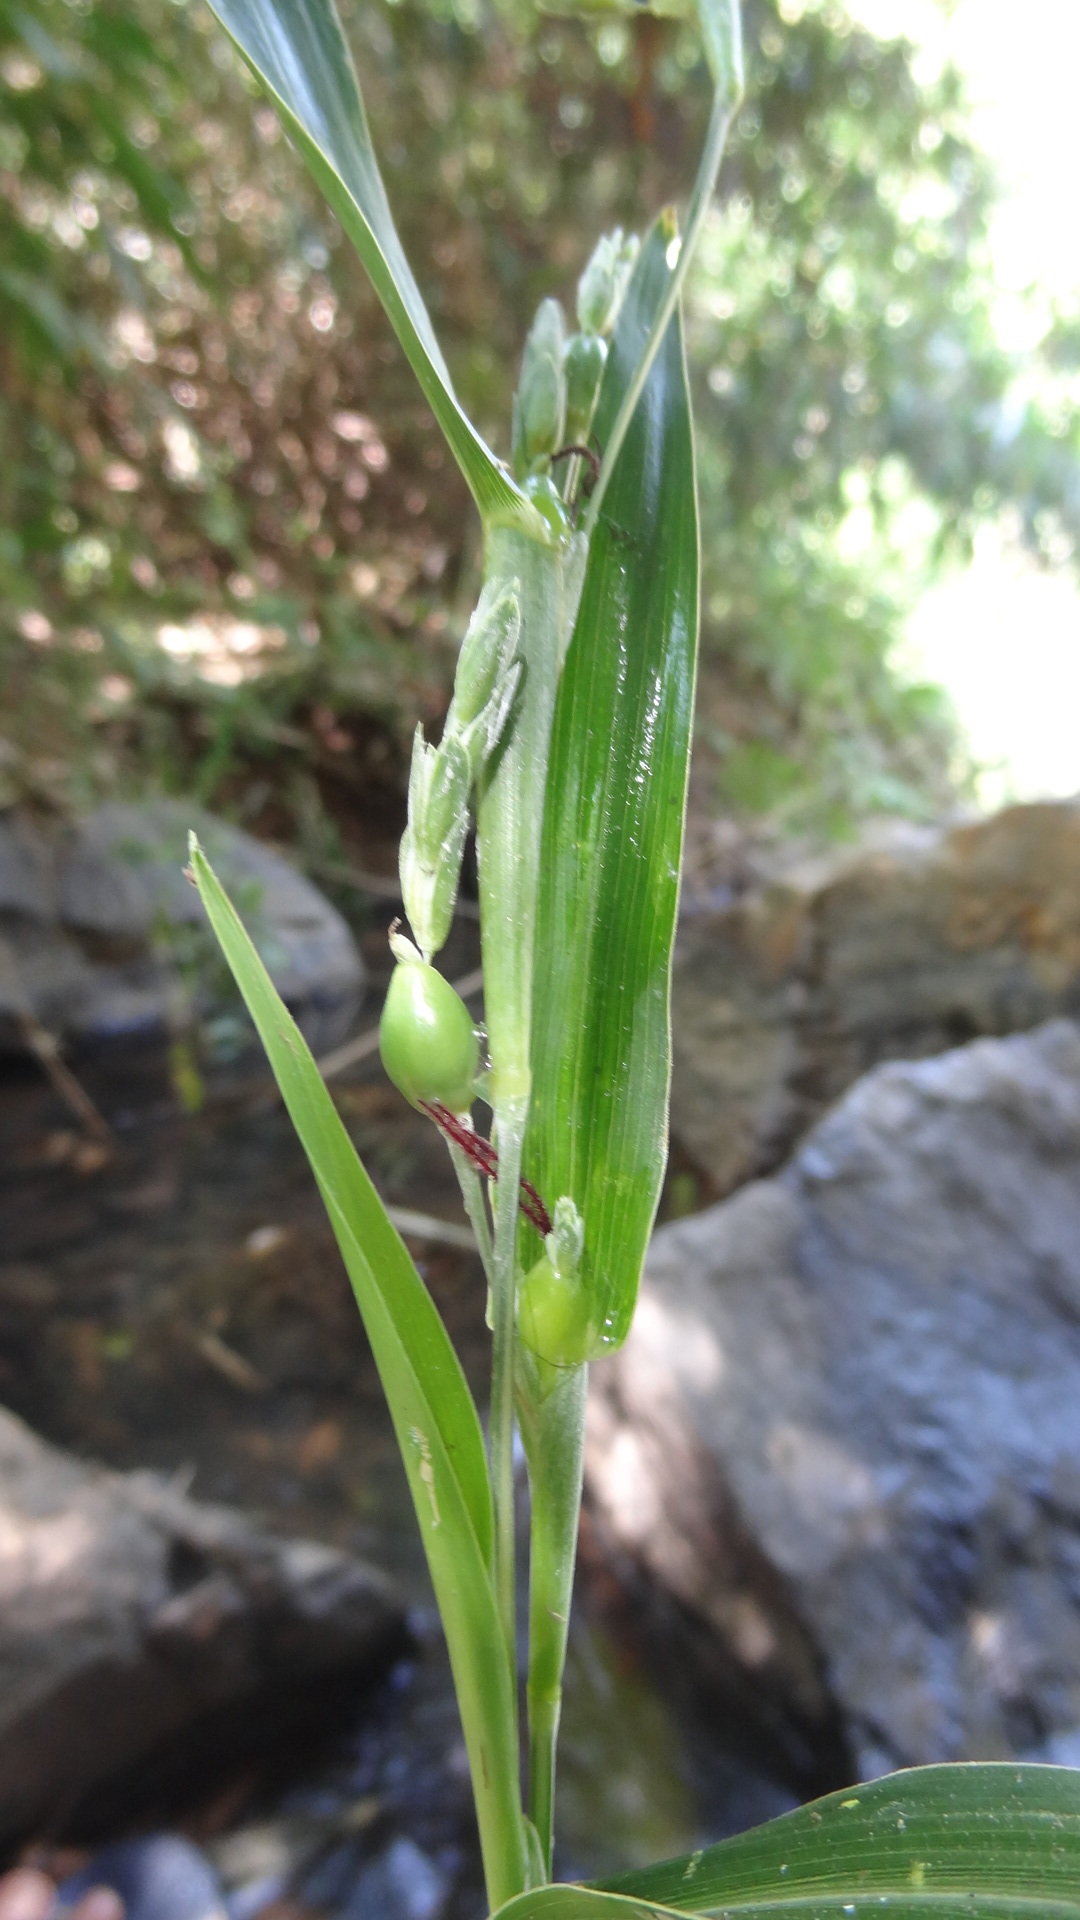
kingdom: Plantae
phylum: Tracheophyta
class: Liliopsida
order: Poales
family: Poaceae
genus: Coix
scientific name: Coix lacryma-jobi
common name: Job's tears
